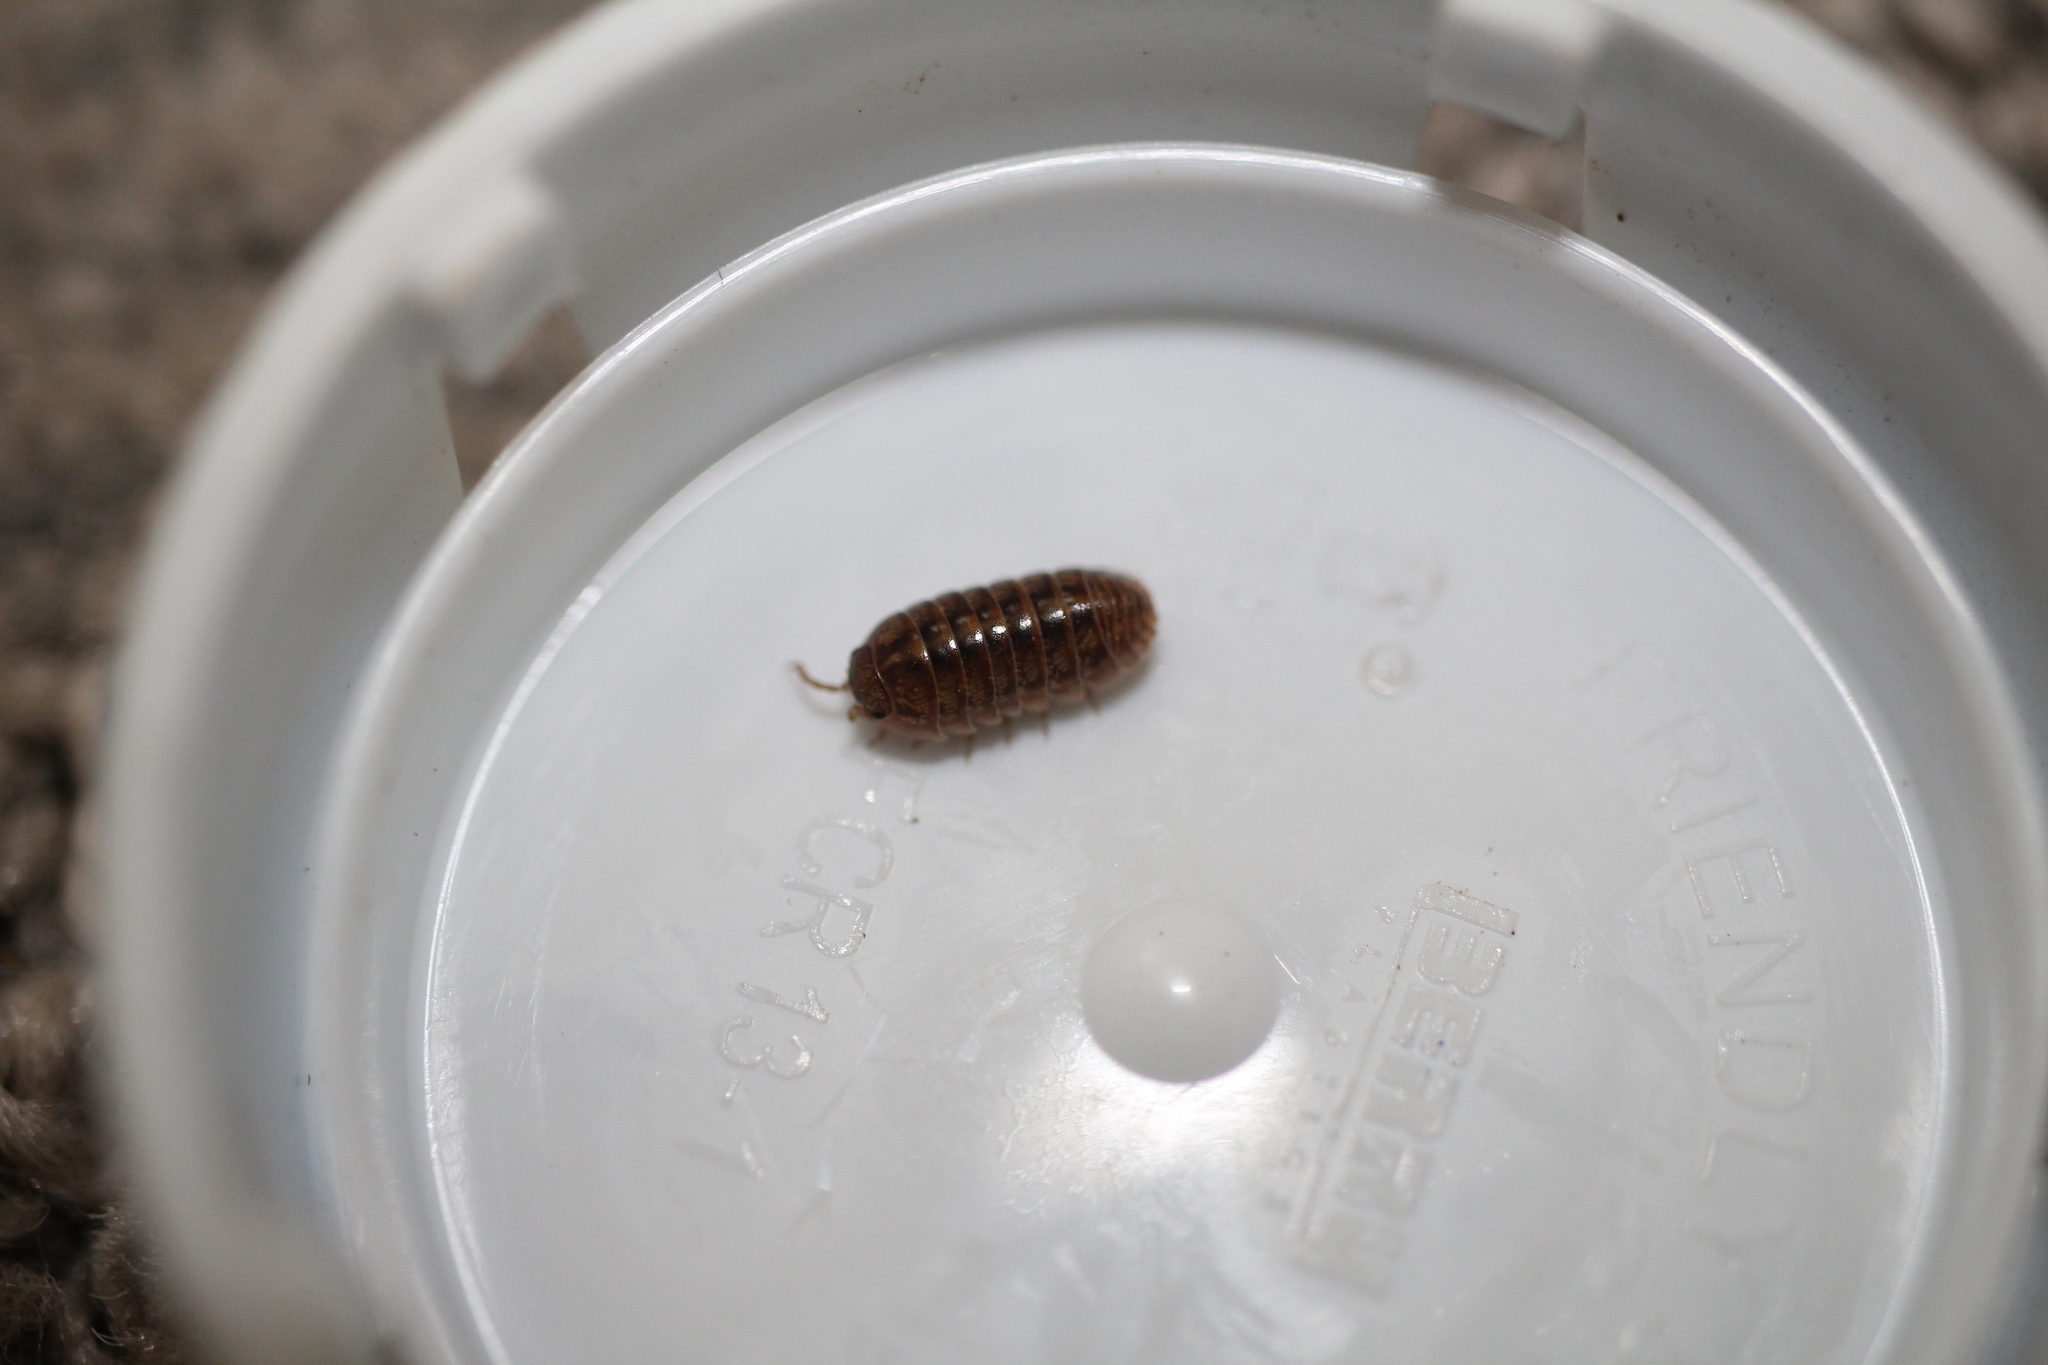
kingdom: Animalia
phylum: Arthropoda
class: Malacostraca
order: Isopoda
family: Armadillidiidae
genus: Armadillidium
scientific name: Armadillidium vulgare
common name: Common pill woodlouse
